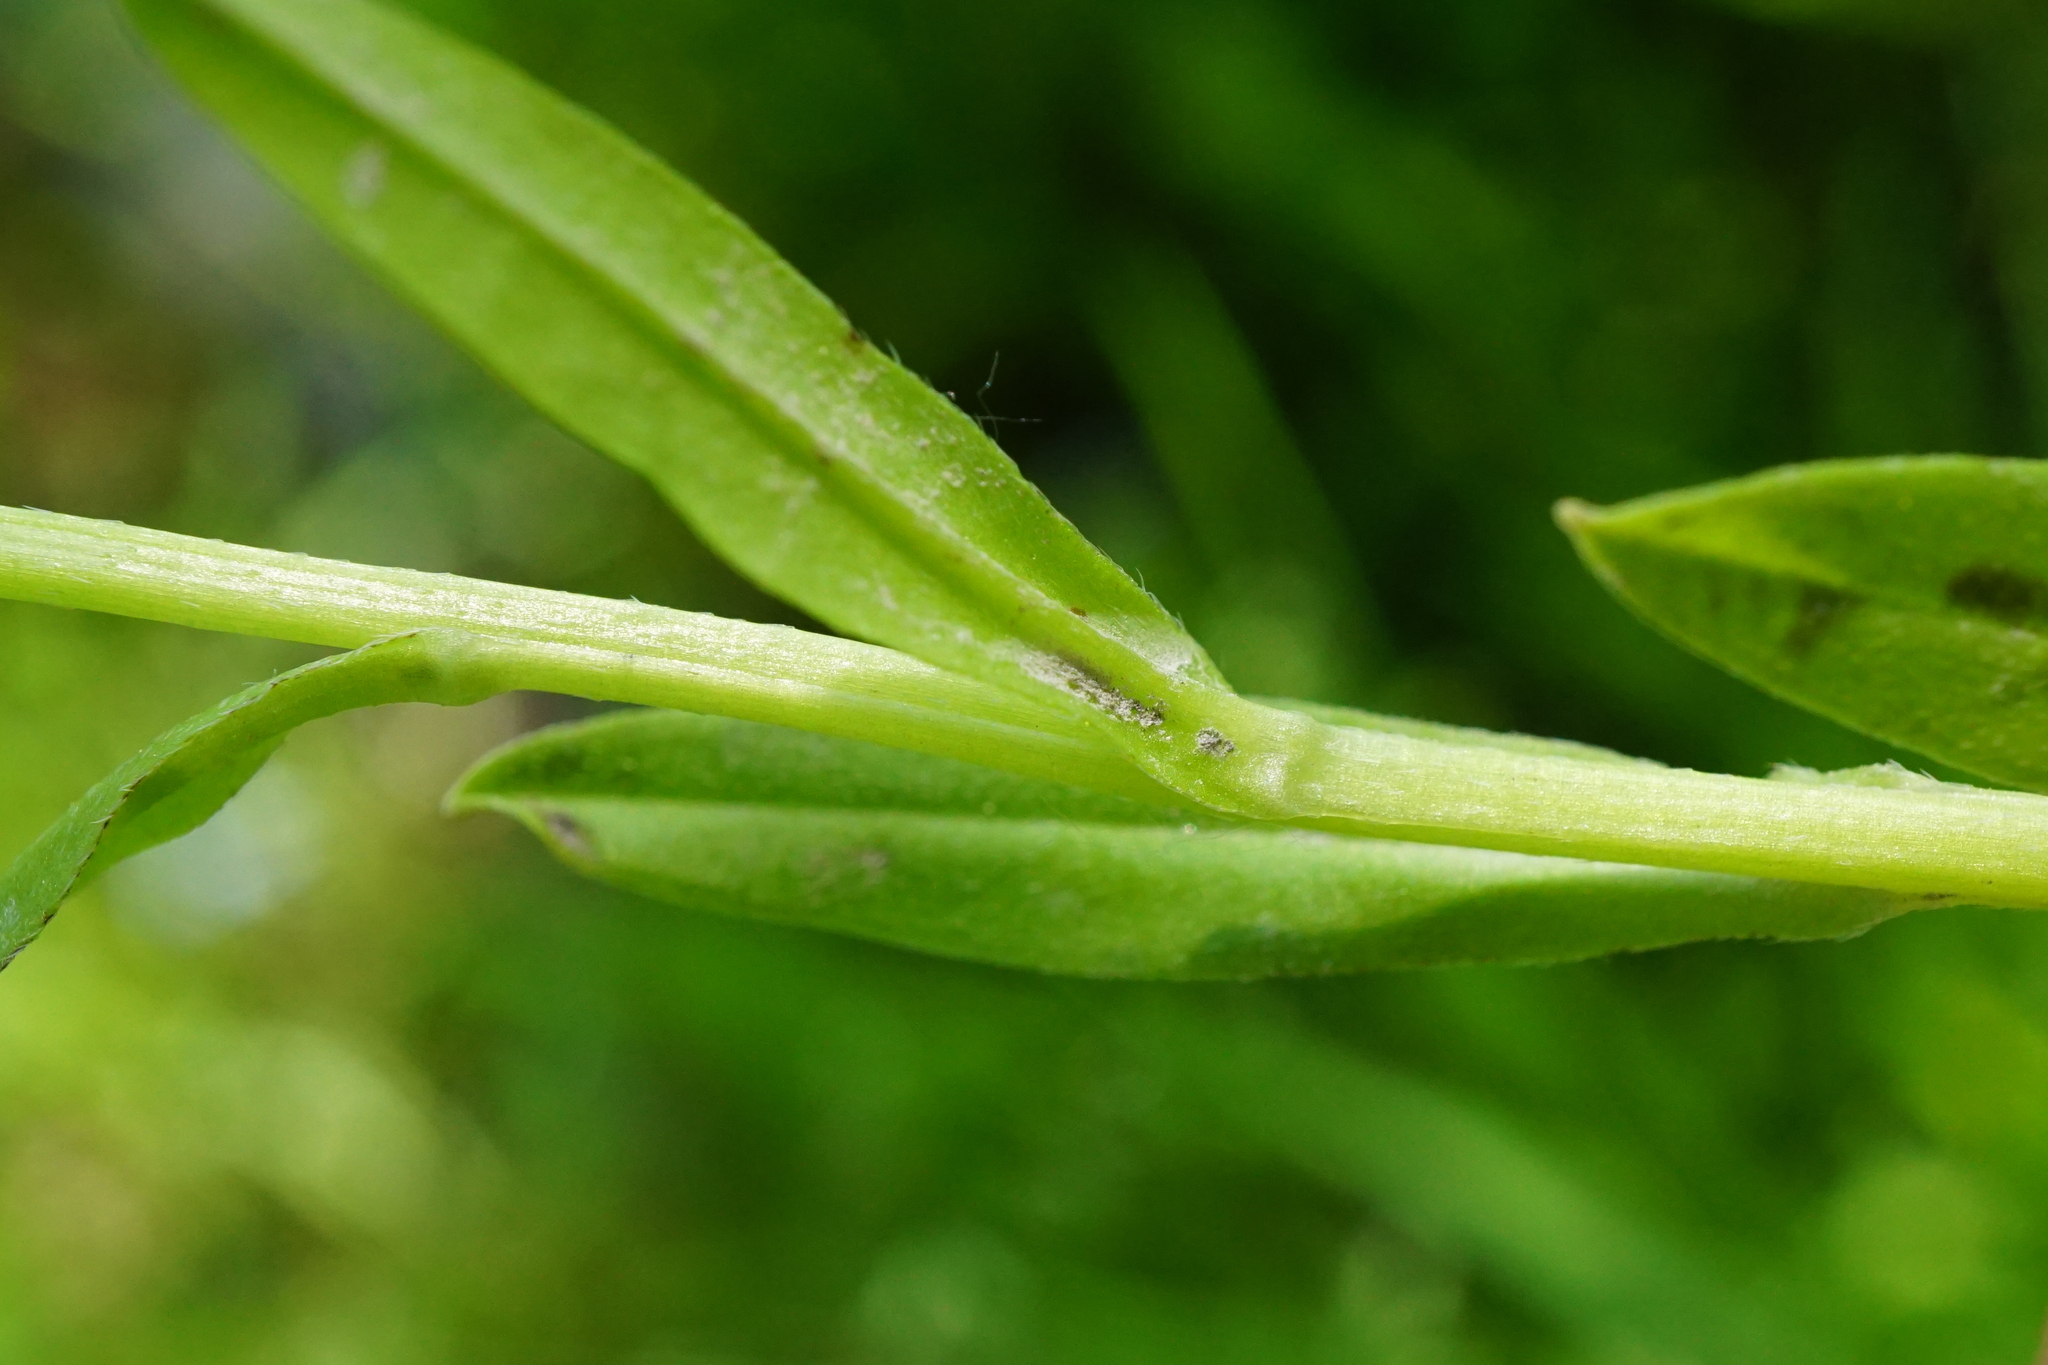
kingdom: Plantae
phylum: Tracheophyta
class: Magnoliopsida
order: Boraginales
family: Boraginaceae
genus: Myosotis
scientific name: Myosotis scorpioides
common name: Water forget-me-not
